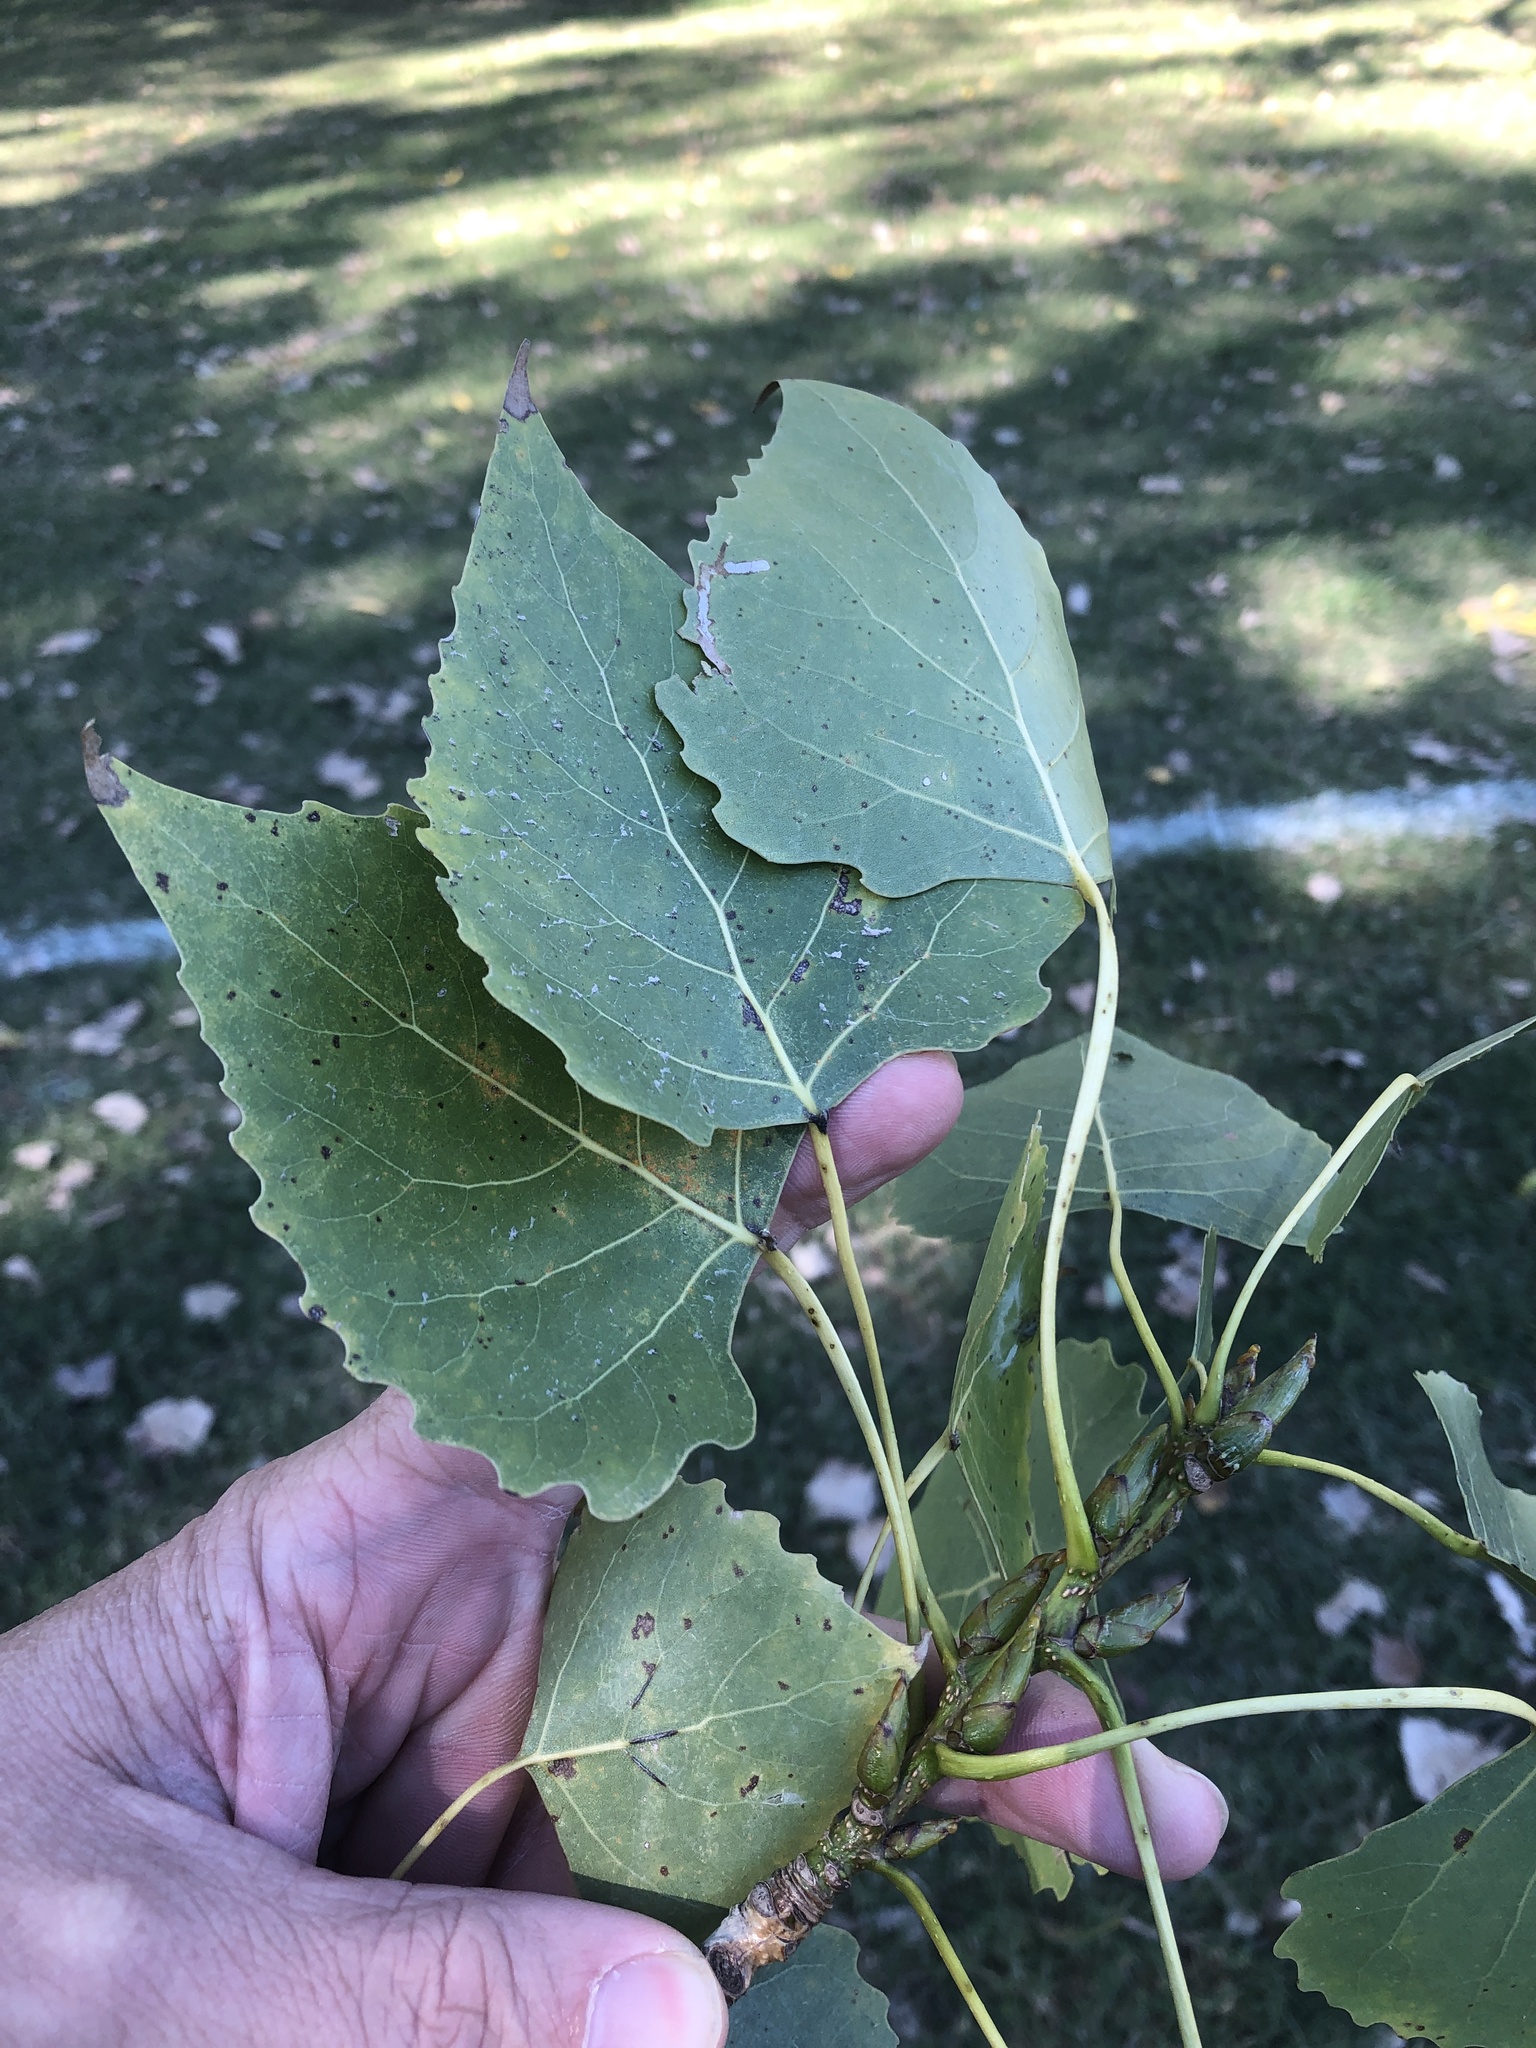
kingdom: Plantae
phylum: Tracheophyta
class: Magnoliopsida
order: Malpighiales
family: Salicaceae
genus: Populus
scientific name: Populus deltoides
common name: Eastern cottonwood
